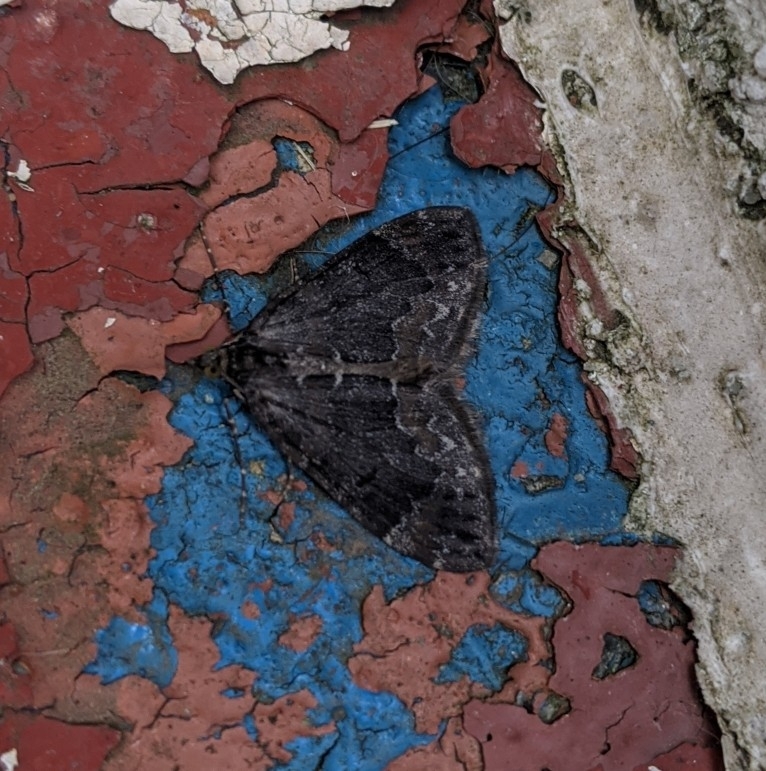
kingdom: Animalia
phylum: Arthropoda
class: Insecta
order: Lepidoptera
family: Geometridae
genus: Dysstroma
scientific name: Dysstroma citrata
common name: Dark marbled carpet
